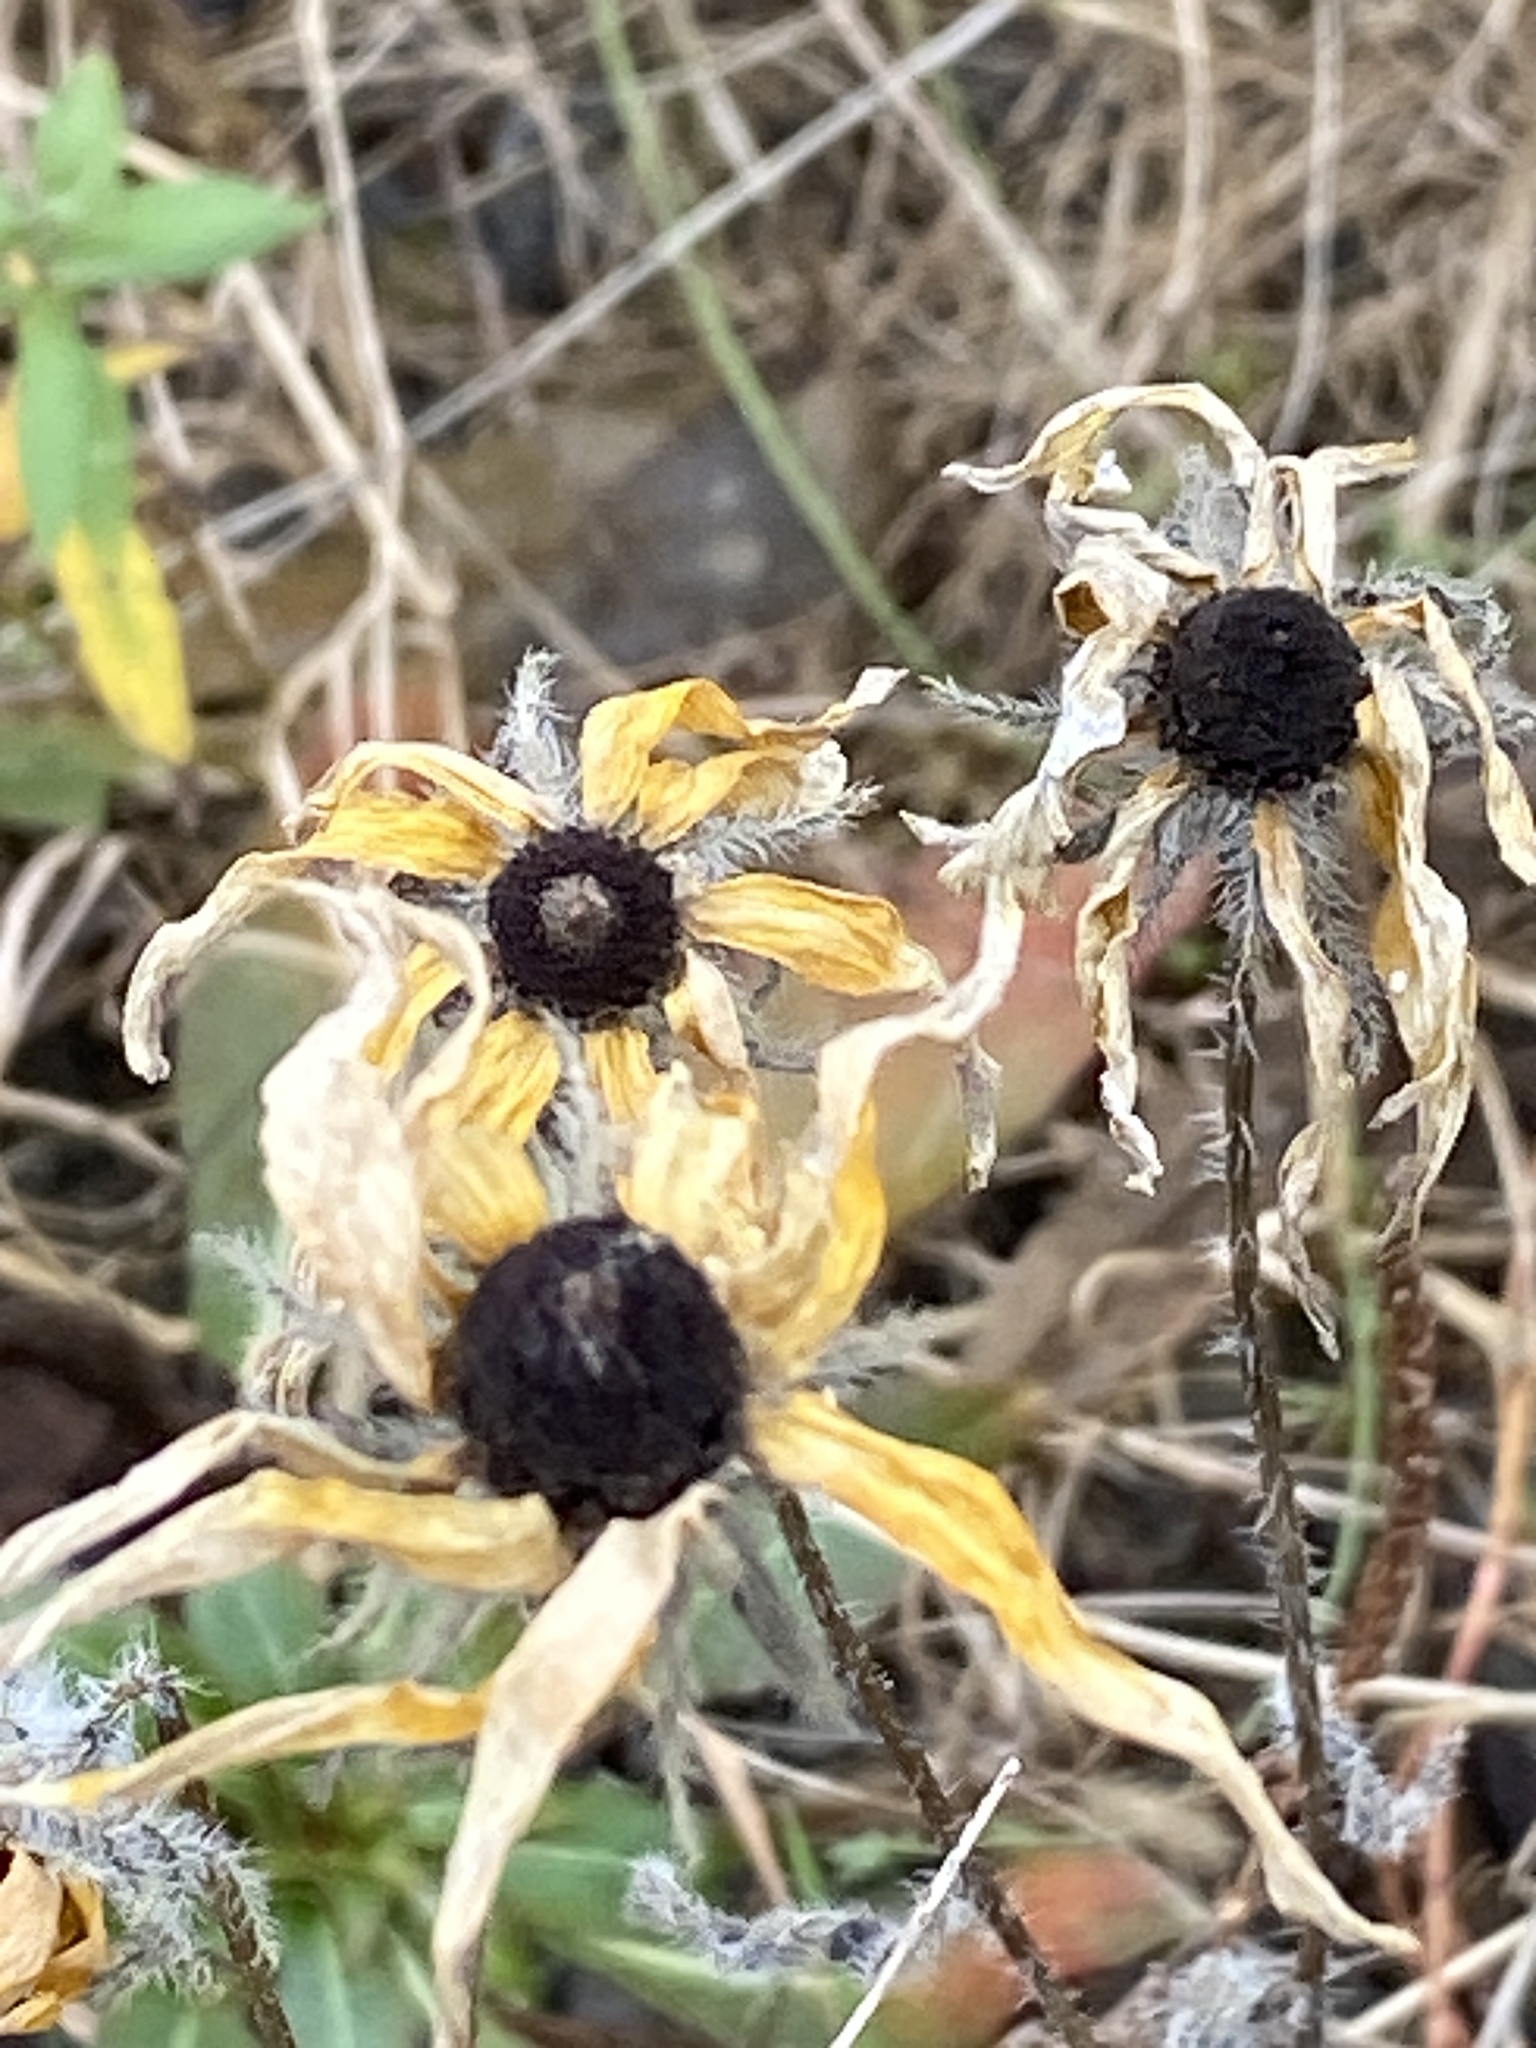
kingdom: Plantae
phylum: Tracheophyta
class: Magnoliopsida
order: Asterales
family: Asteraceae
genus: Rudbeckia
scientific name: Rudbeckia hirta
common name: Black-eyed-susan
